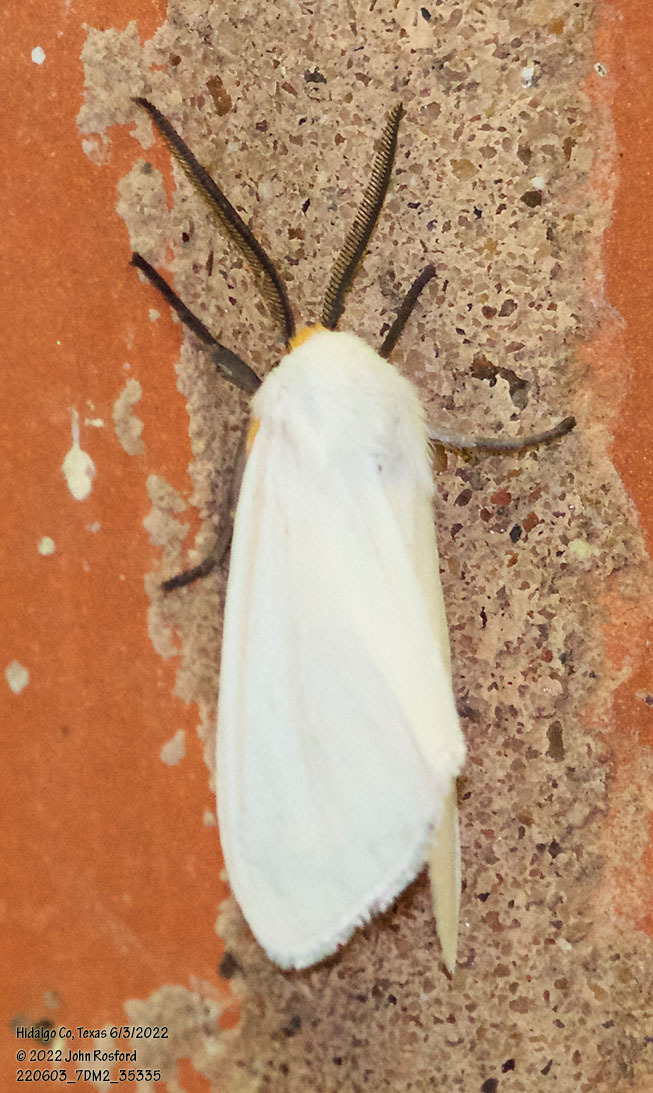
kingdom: Animalia
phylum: Arthropoda
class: Insecta
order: Lepidoptera
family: Erebidae
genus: Pygarctia
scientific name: Pygarctia flavidorsalis
